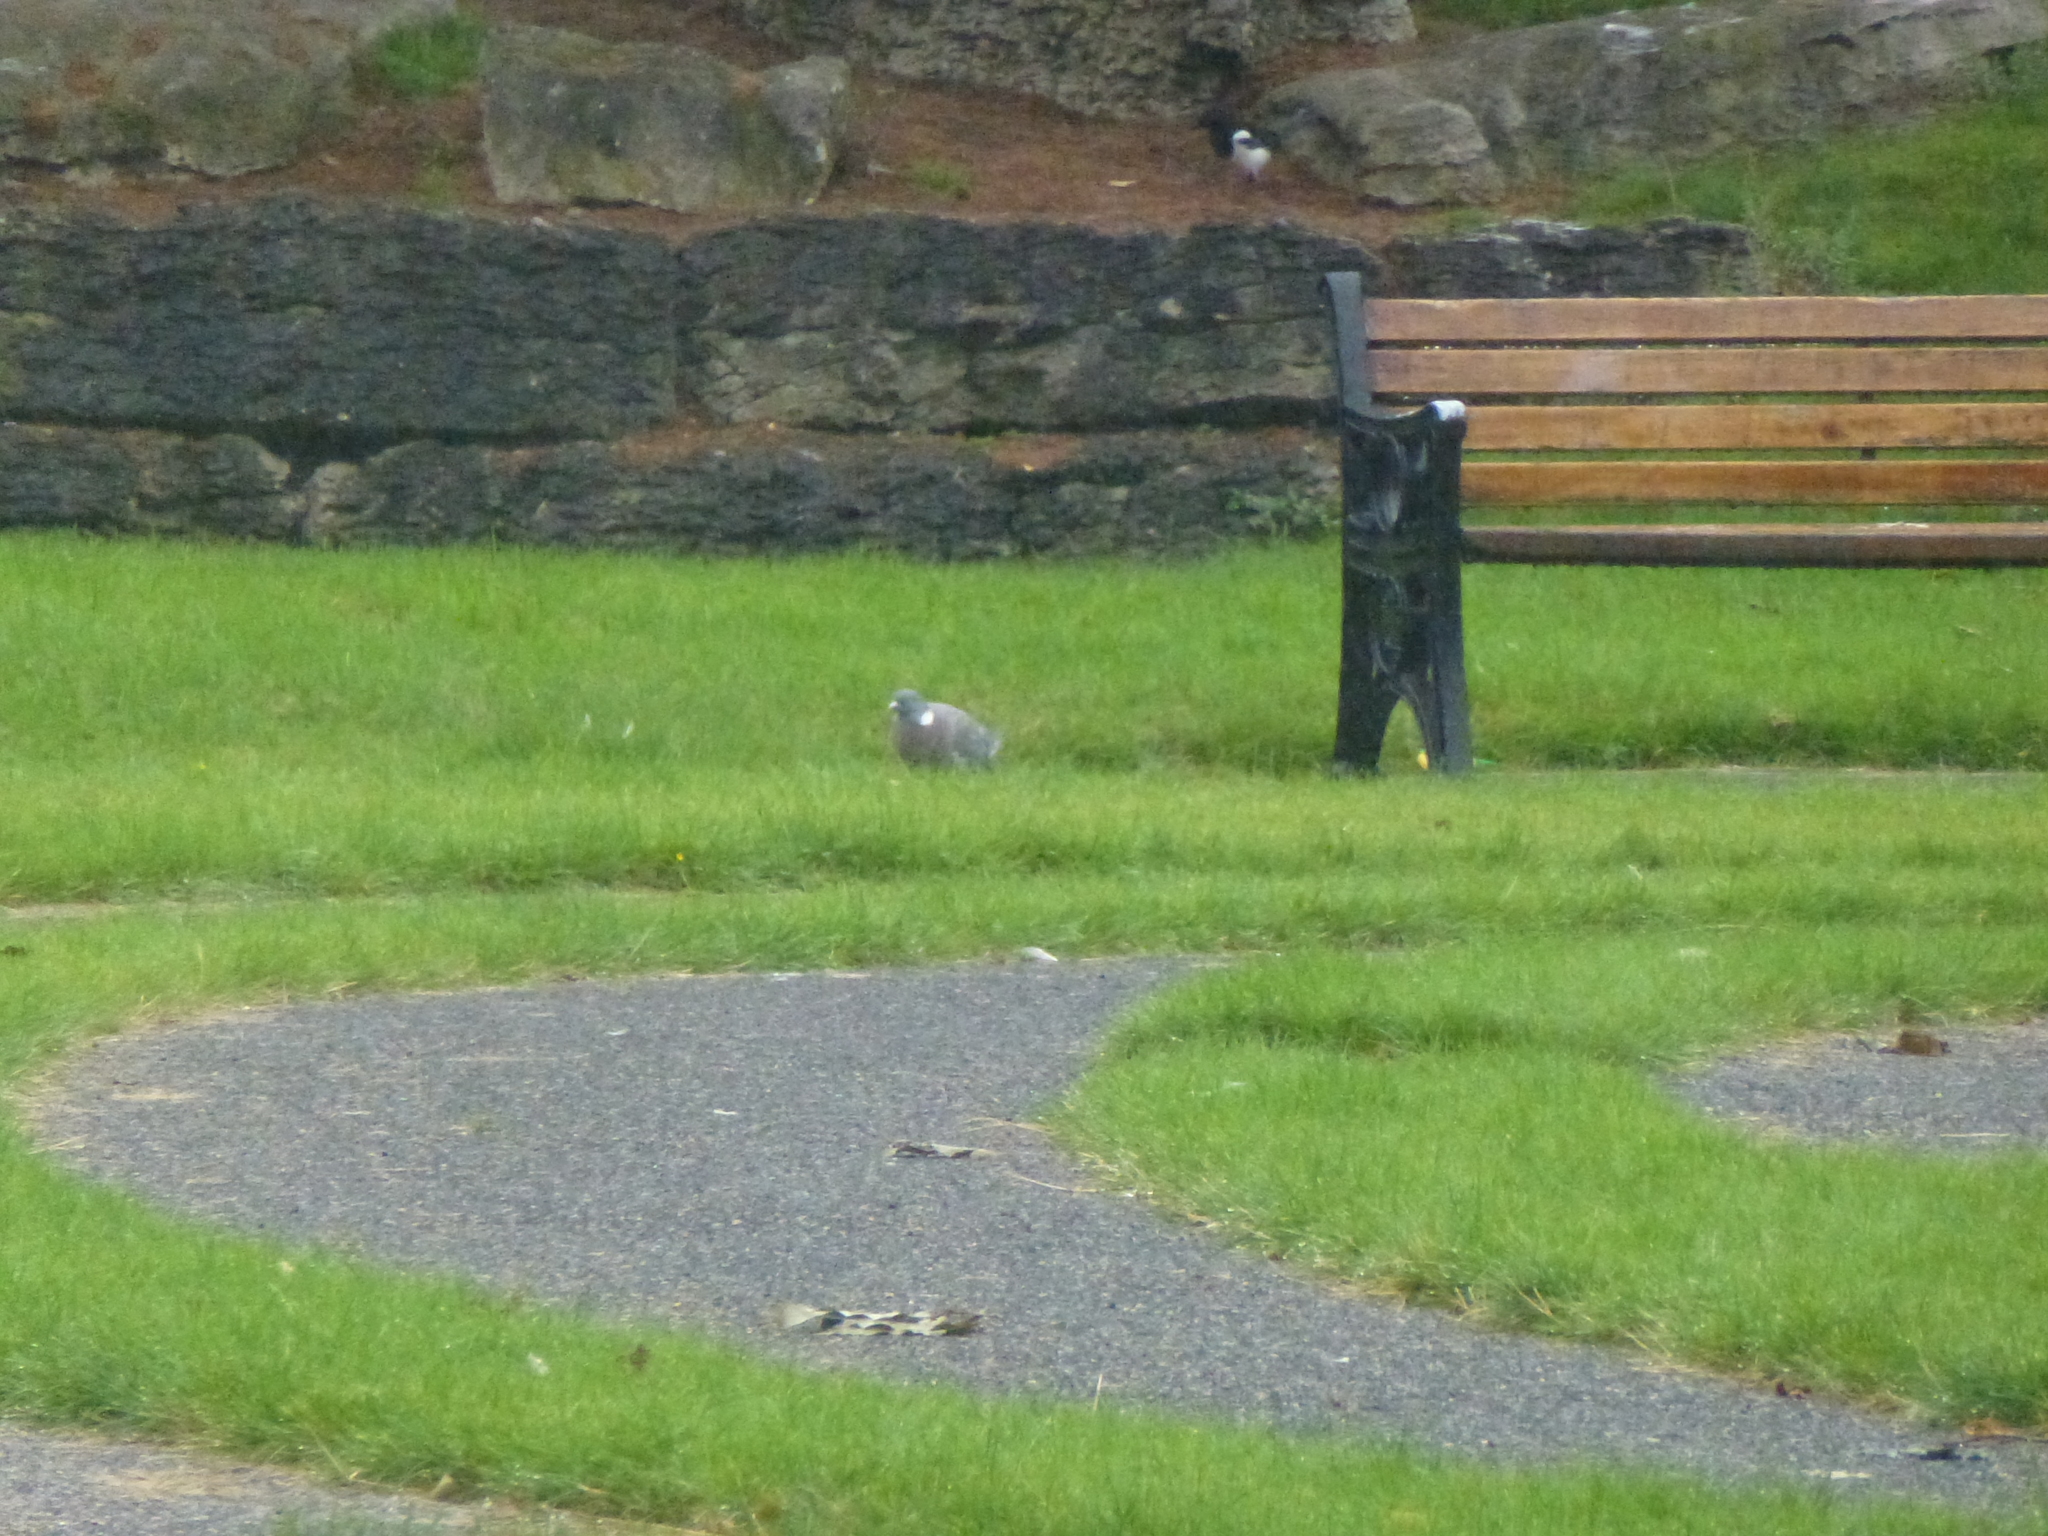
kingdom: Animalia
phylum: Chordata
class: Aves
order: Columbiformes
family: Columbidae
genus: Columba
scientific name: Columba palumbus
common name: Common wood pigeon
